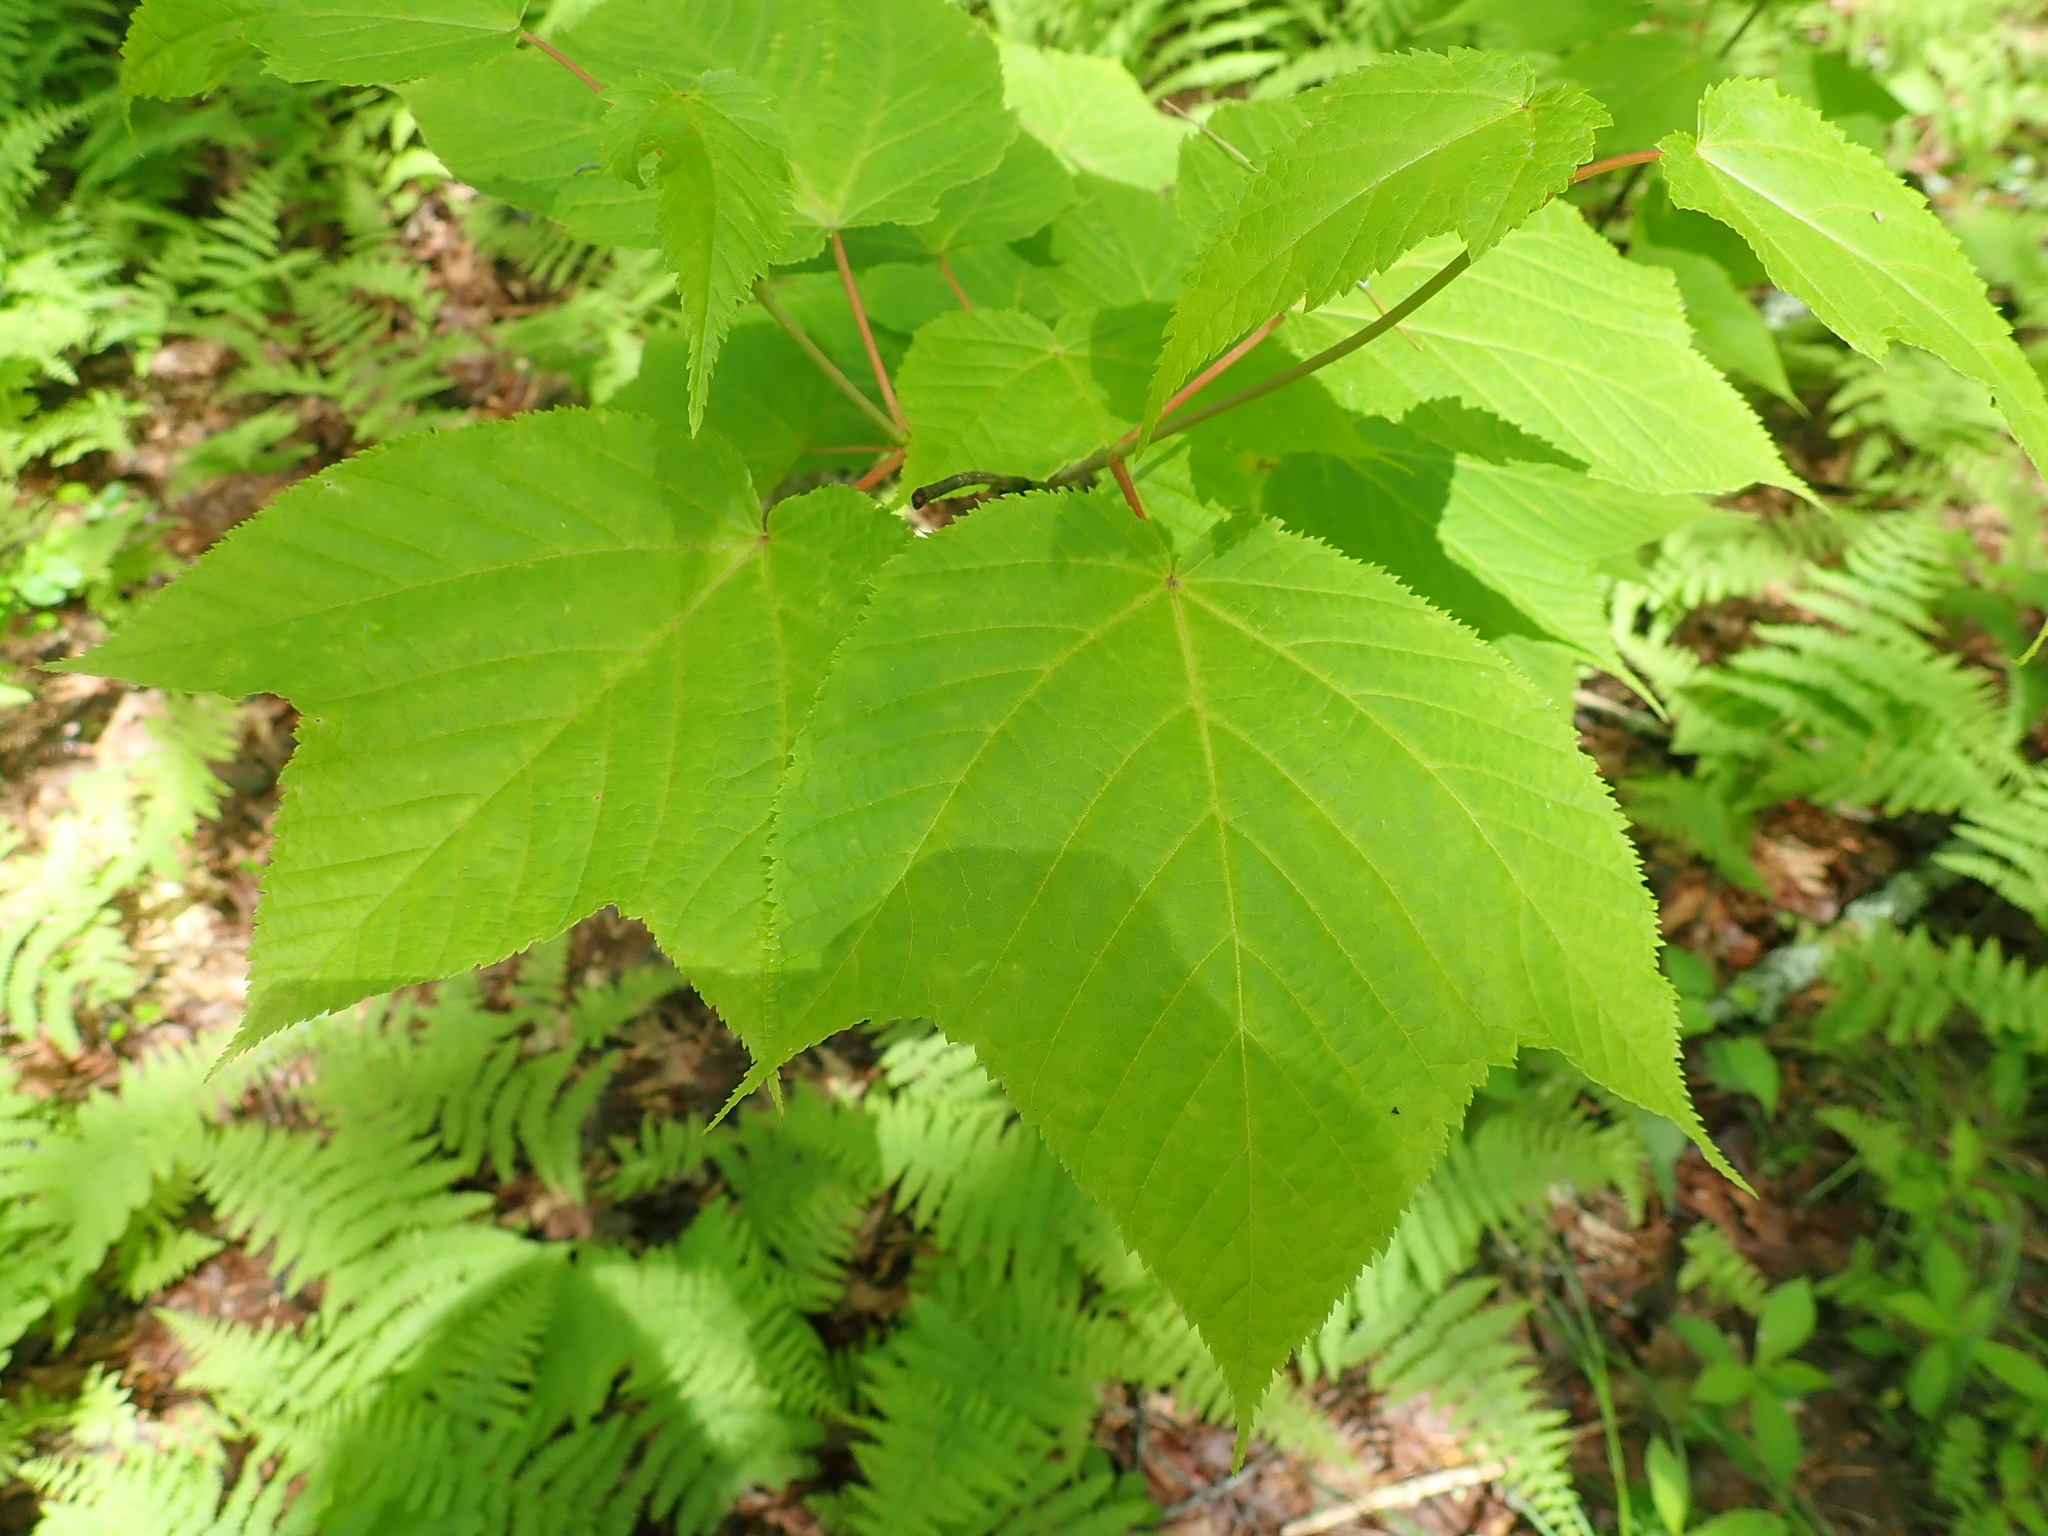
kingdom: Plantae
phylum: Tracheophyta
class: Magnoliopsida
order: Sapindales
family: Sapindaceae
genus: Acer
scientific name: Acer pensylvanicum
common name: Moosewood
